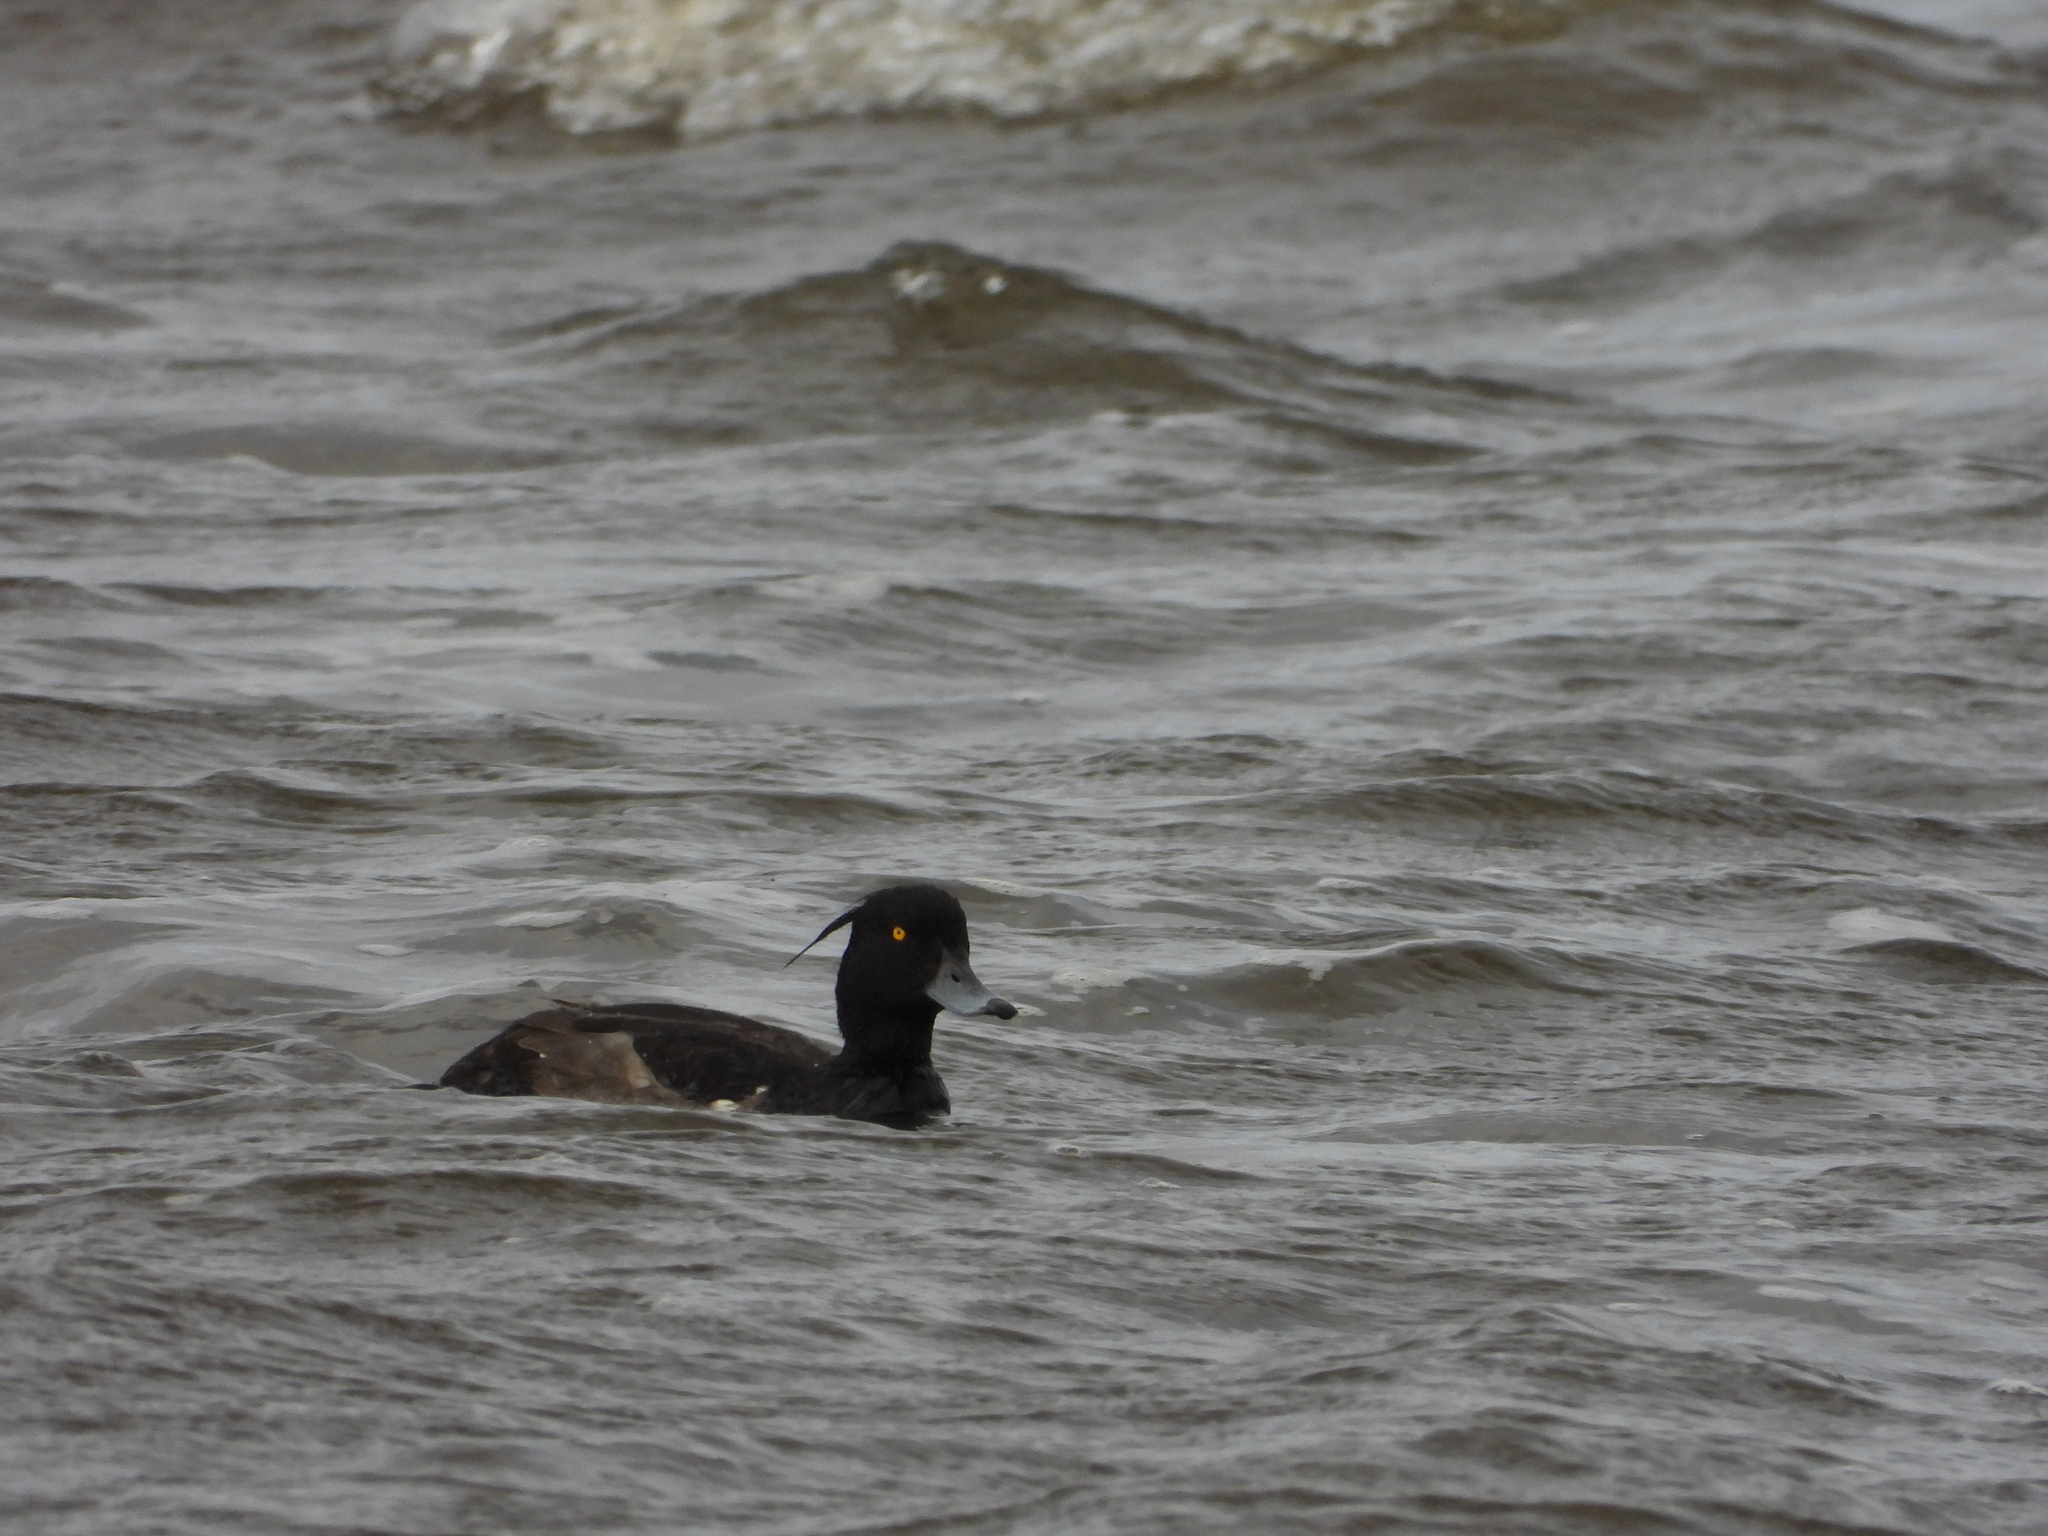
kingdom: Animalia
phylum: Chordata
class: Aves
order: Anseriformes
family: Anatidae
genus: Aythya
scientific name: Aythya fuligula
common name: Tufted duck
